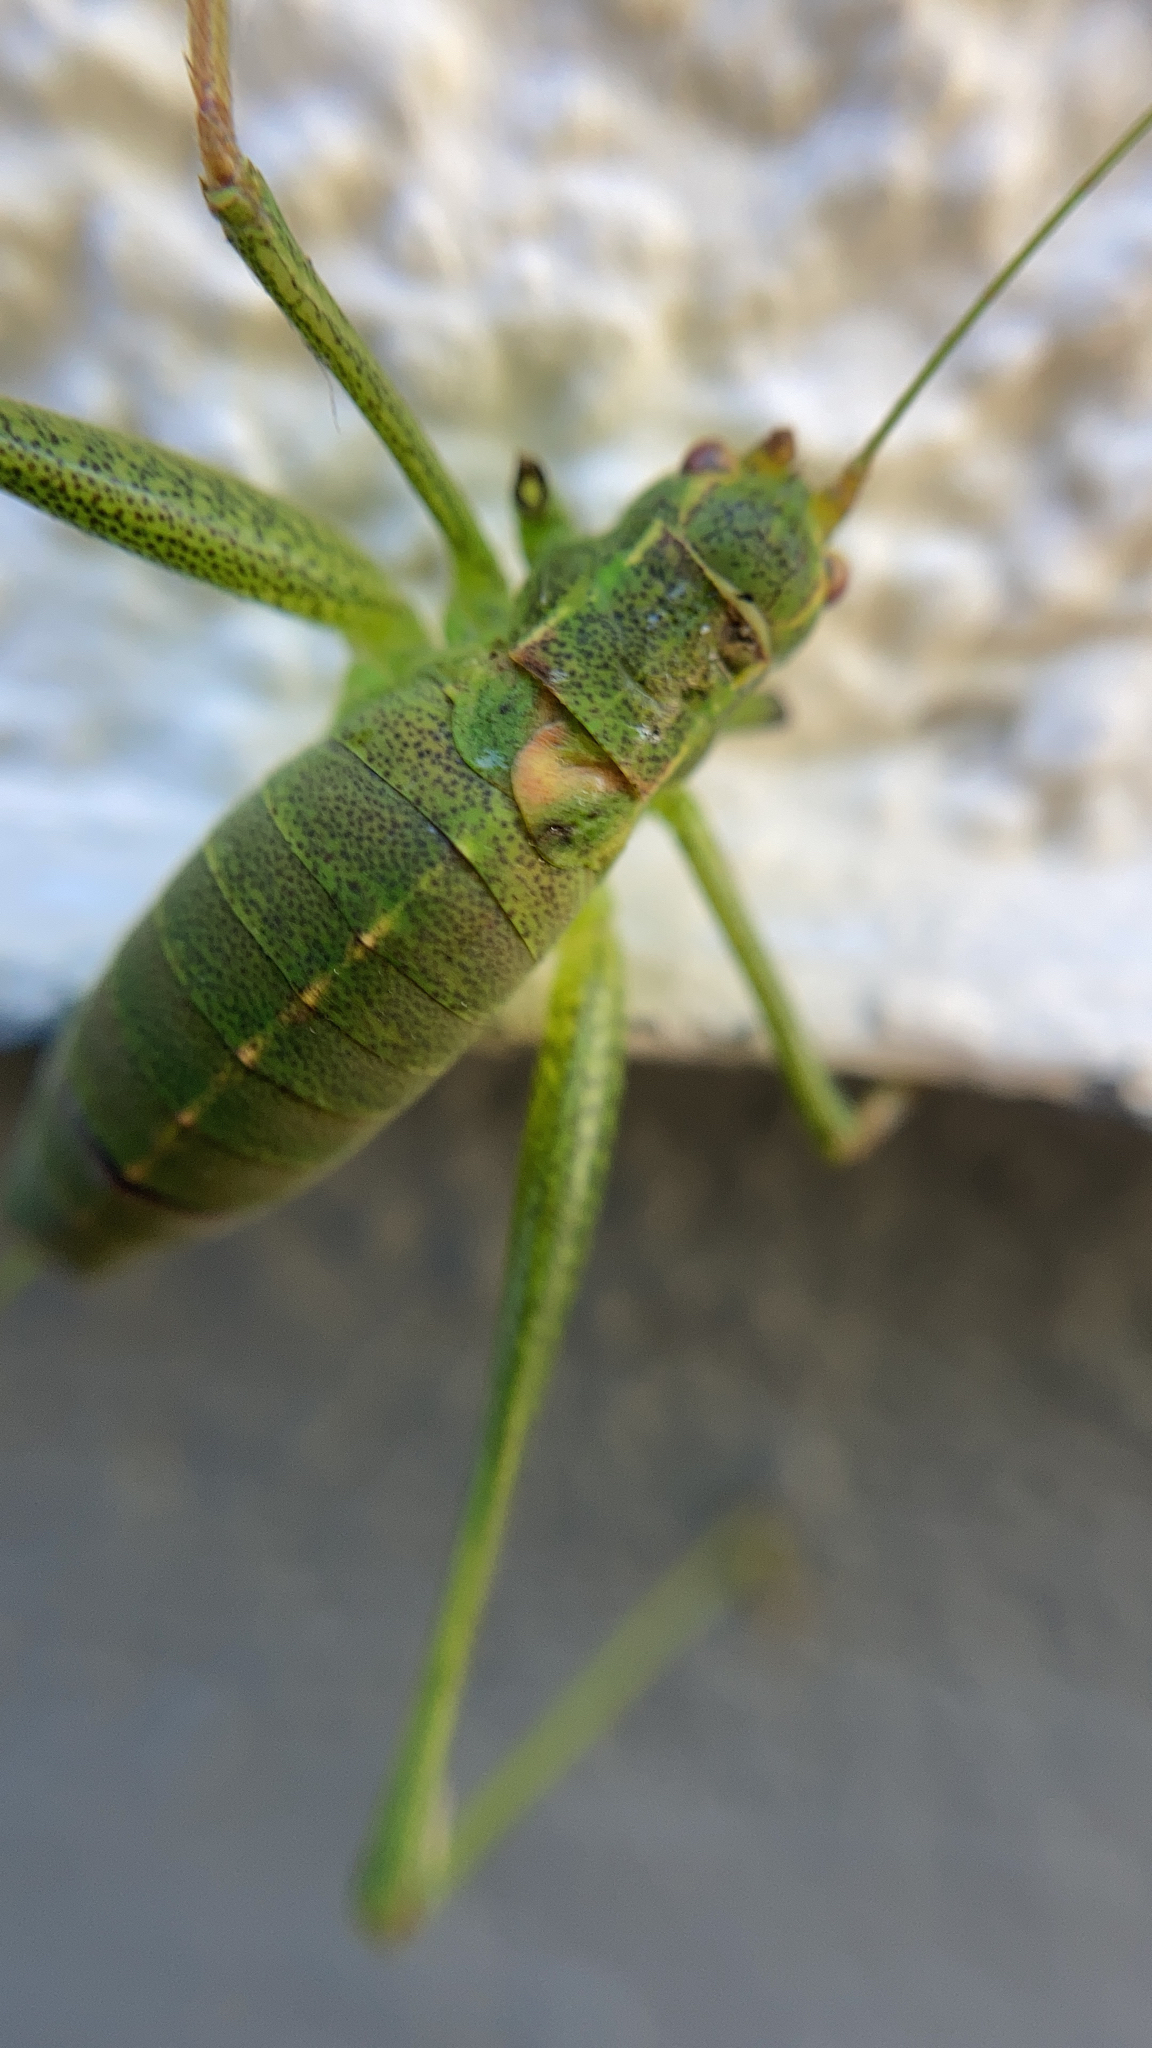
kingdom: Animalia
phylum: Arthropoda
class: Insecta
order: Orthoptera
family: Tettigoniidae
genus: Leptophyes
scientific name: Leptophyes punctatissima
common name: Speckled bush-cricket
